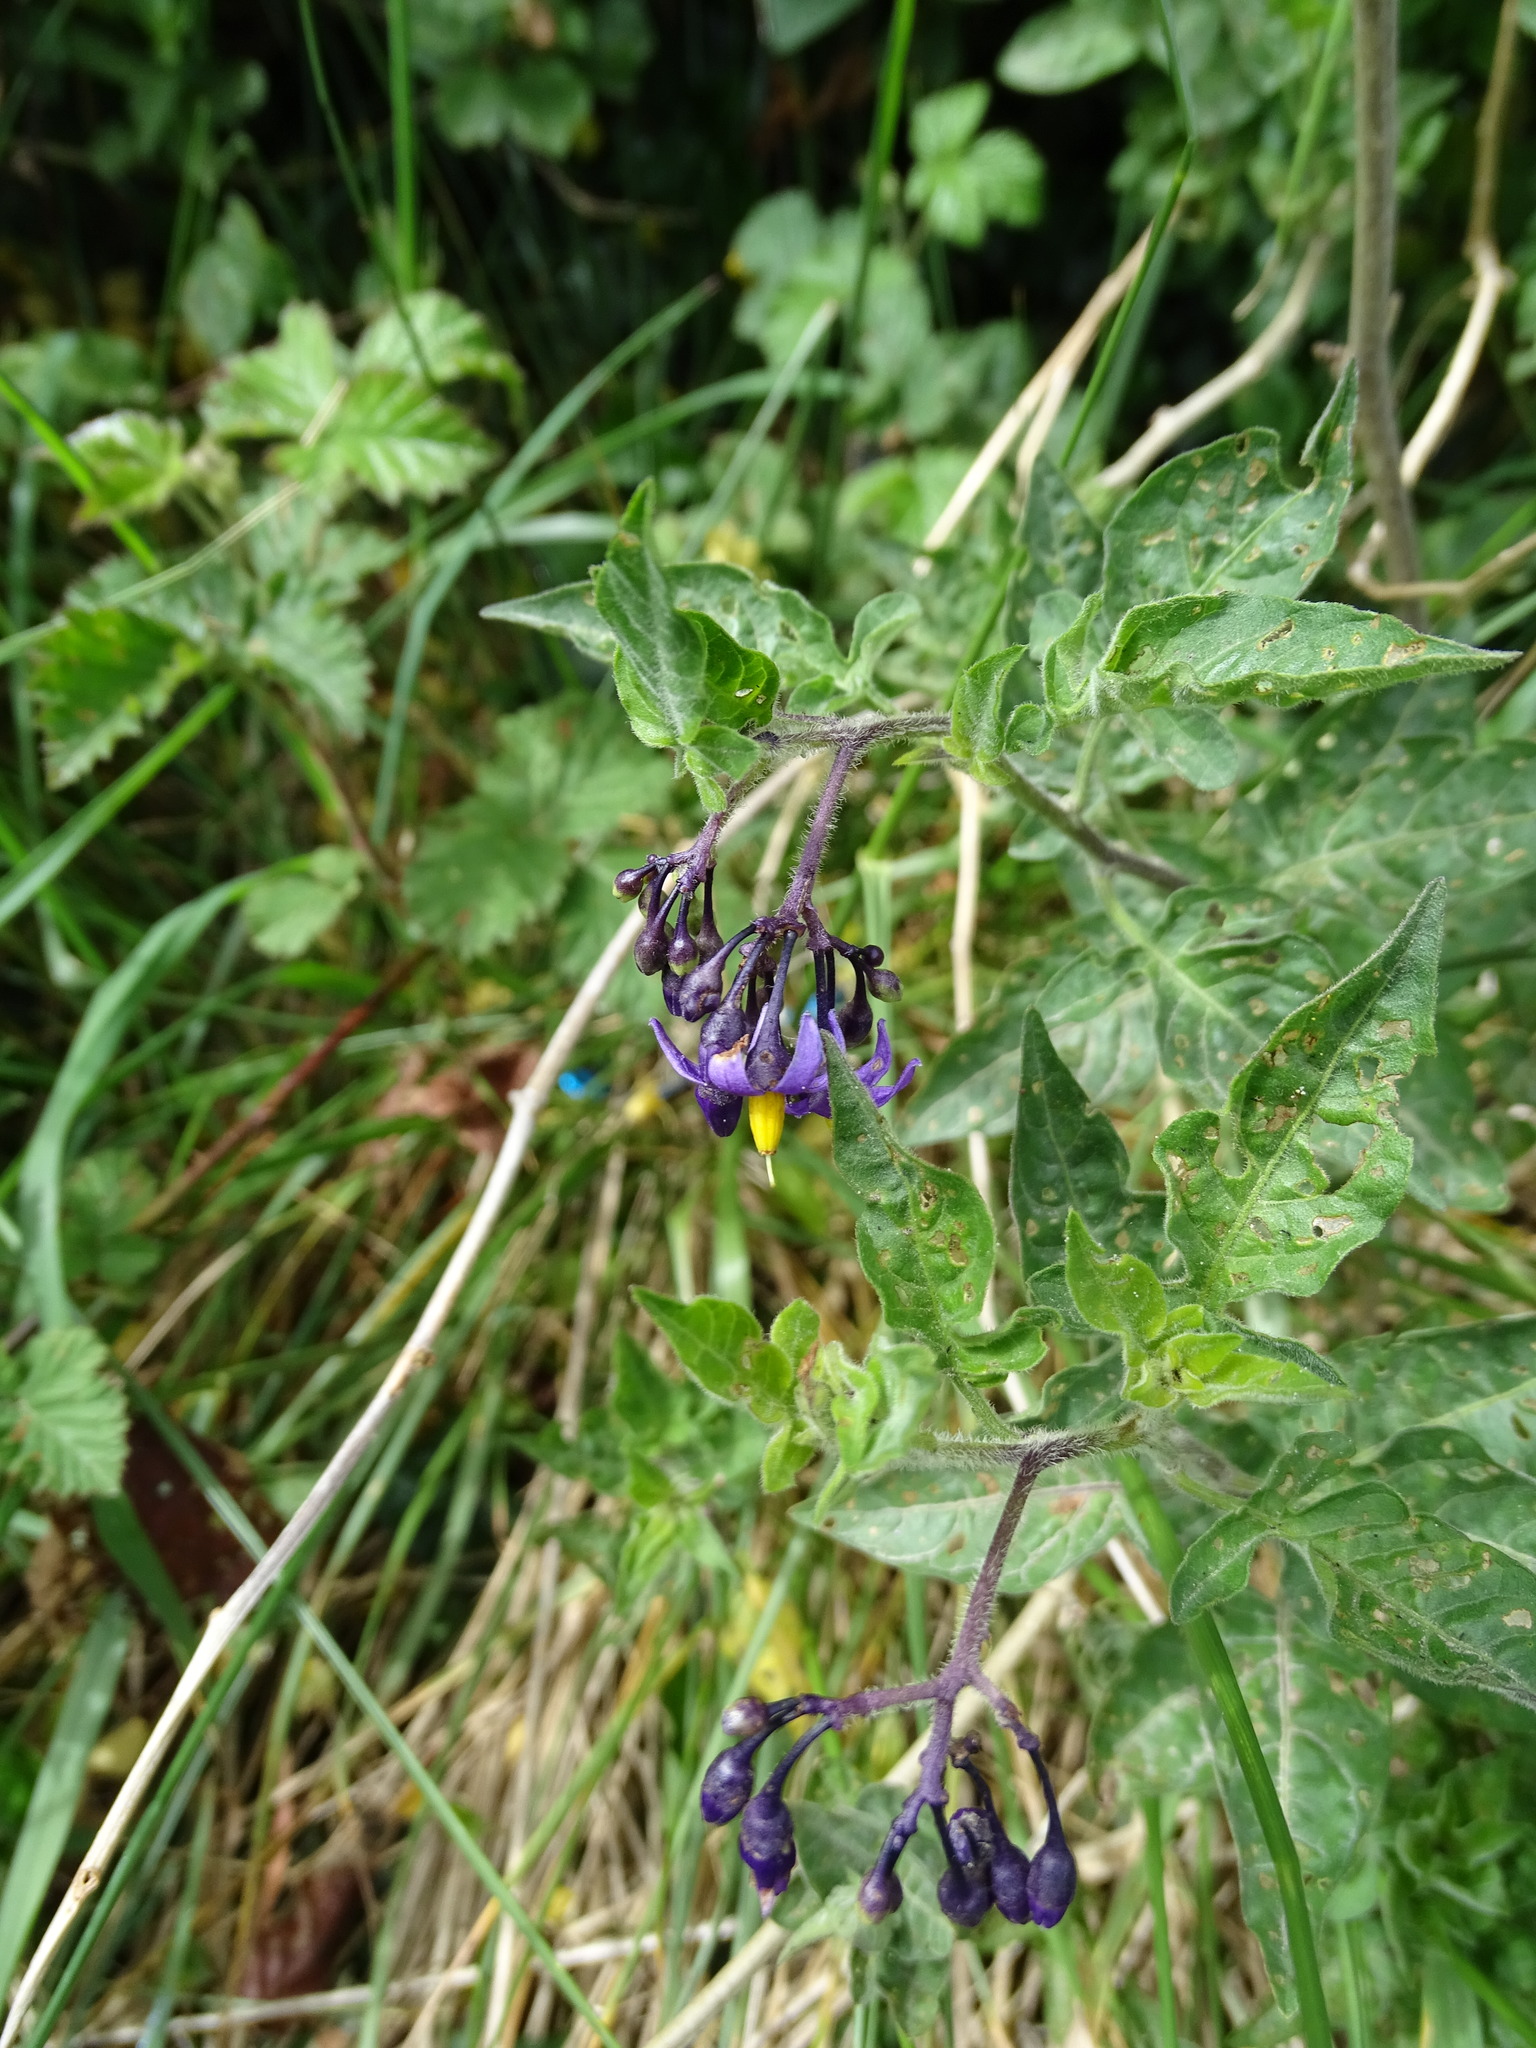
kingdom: Plantae
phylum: Tracheophyta
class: Magnoliopsida
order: Solanales
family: Solanaceae
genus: Solanum
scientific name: Solanum dulcamara
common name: Climbing nightshade
